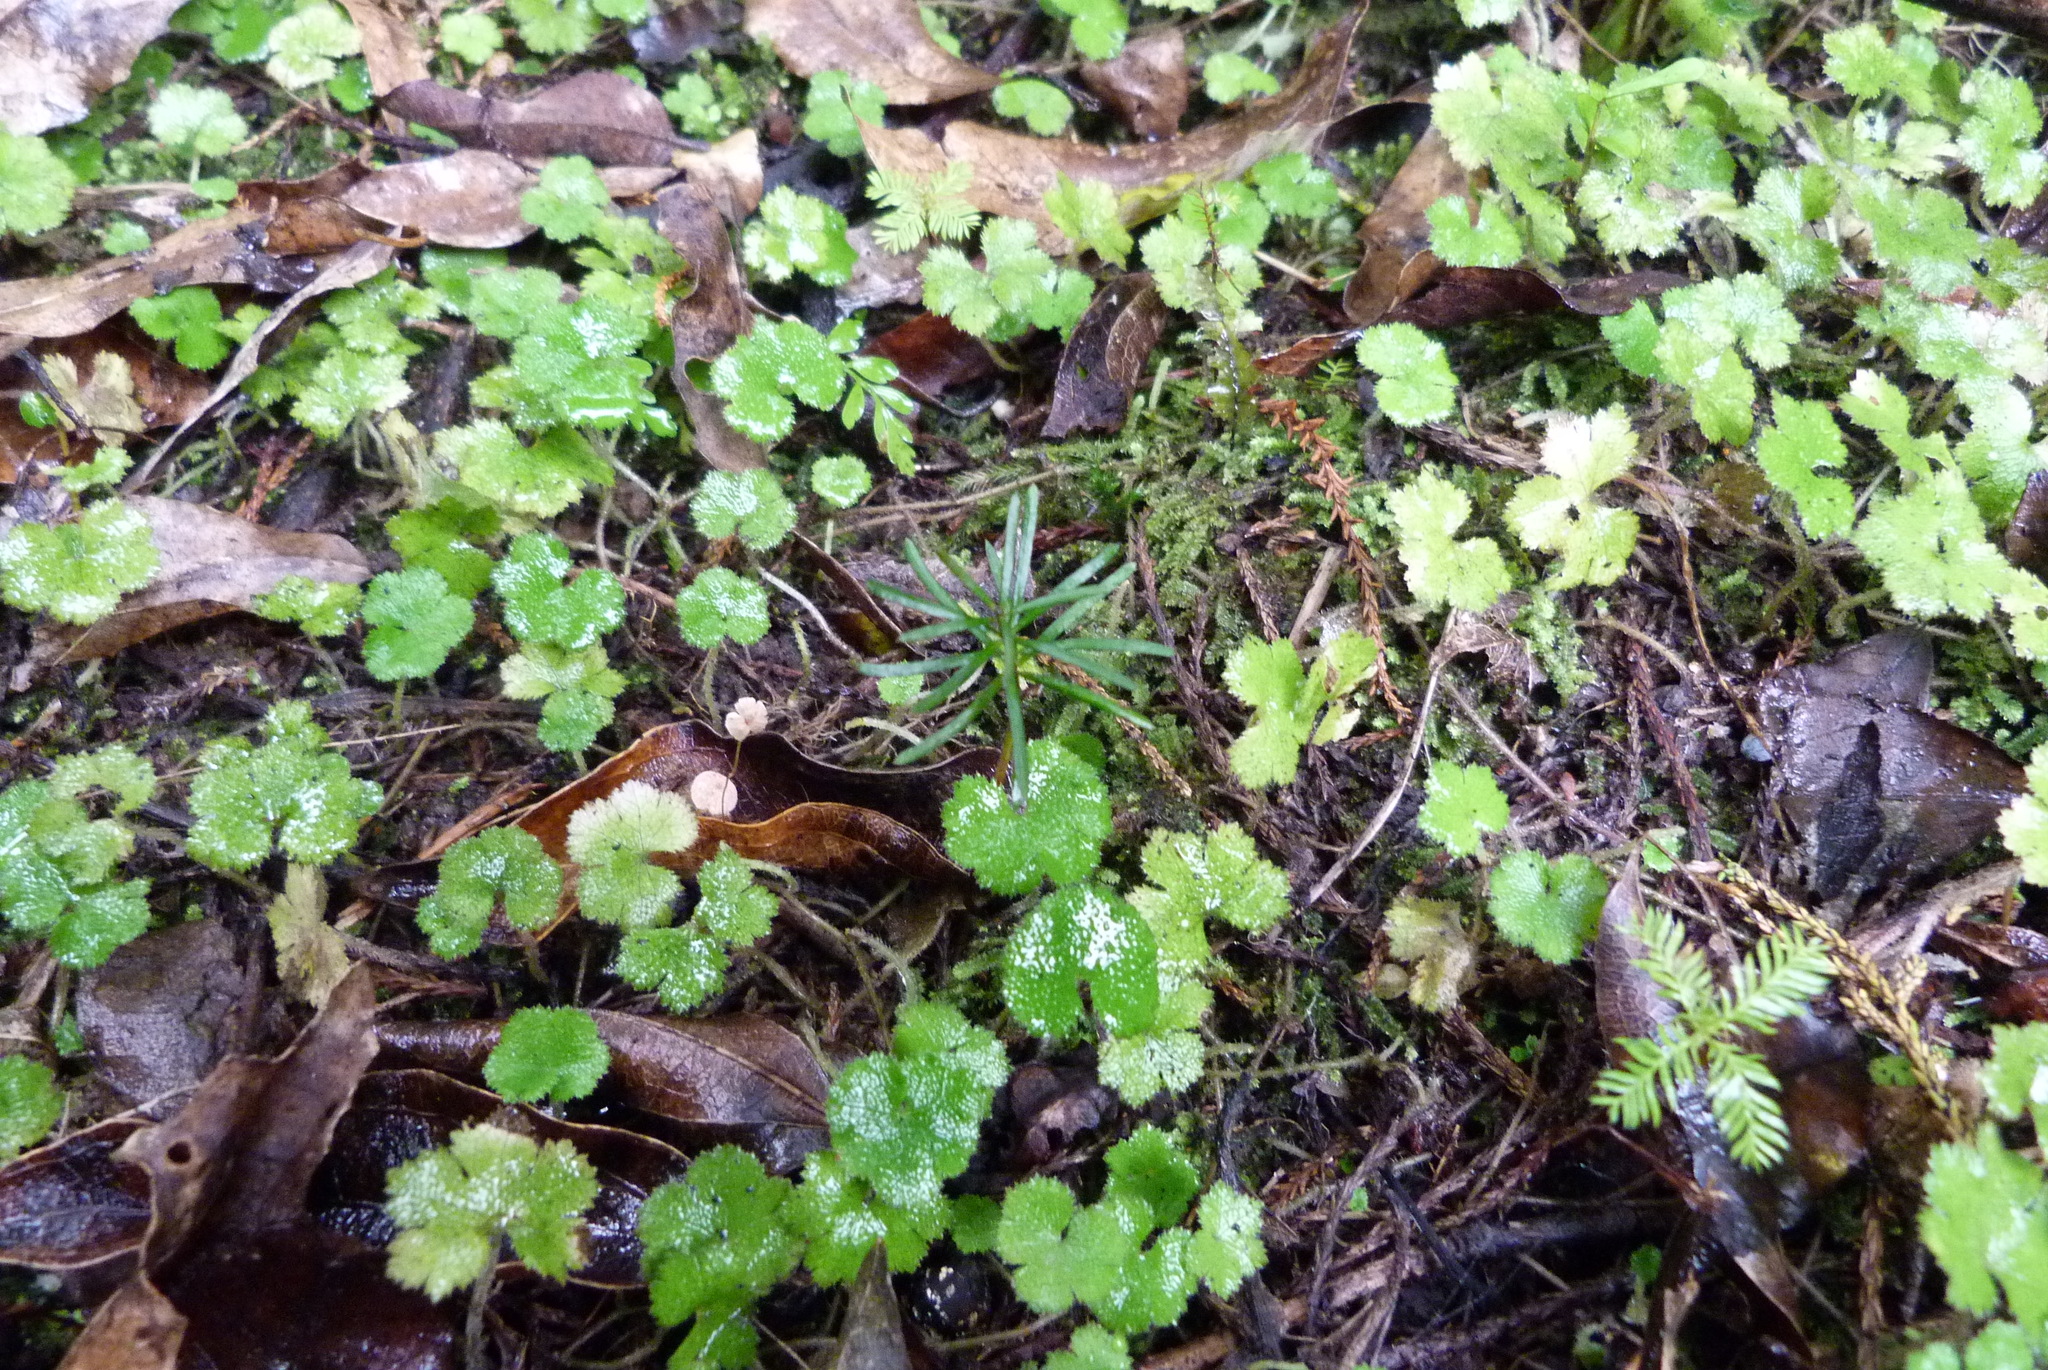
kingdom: Plantae
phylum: Tracheophyta
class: Pinopsida
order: Pinales
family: Podocarpaceae
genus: Prumnopitys
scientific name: Prumnopitys taxifolia
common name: Matai
